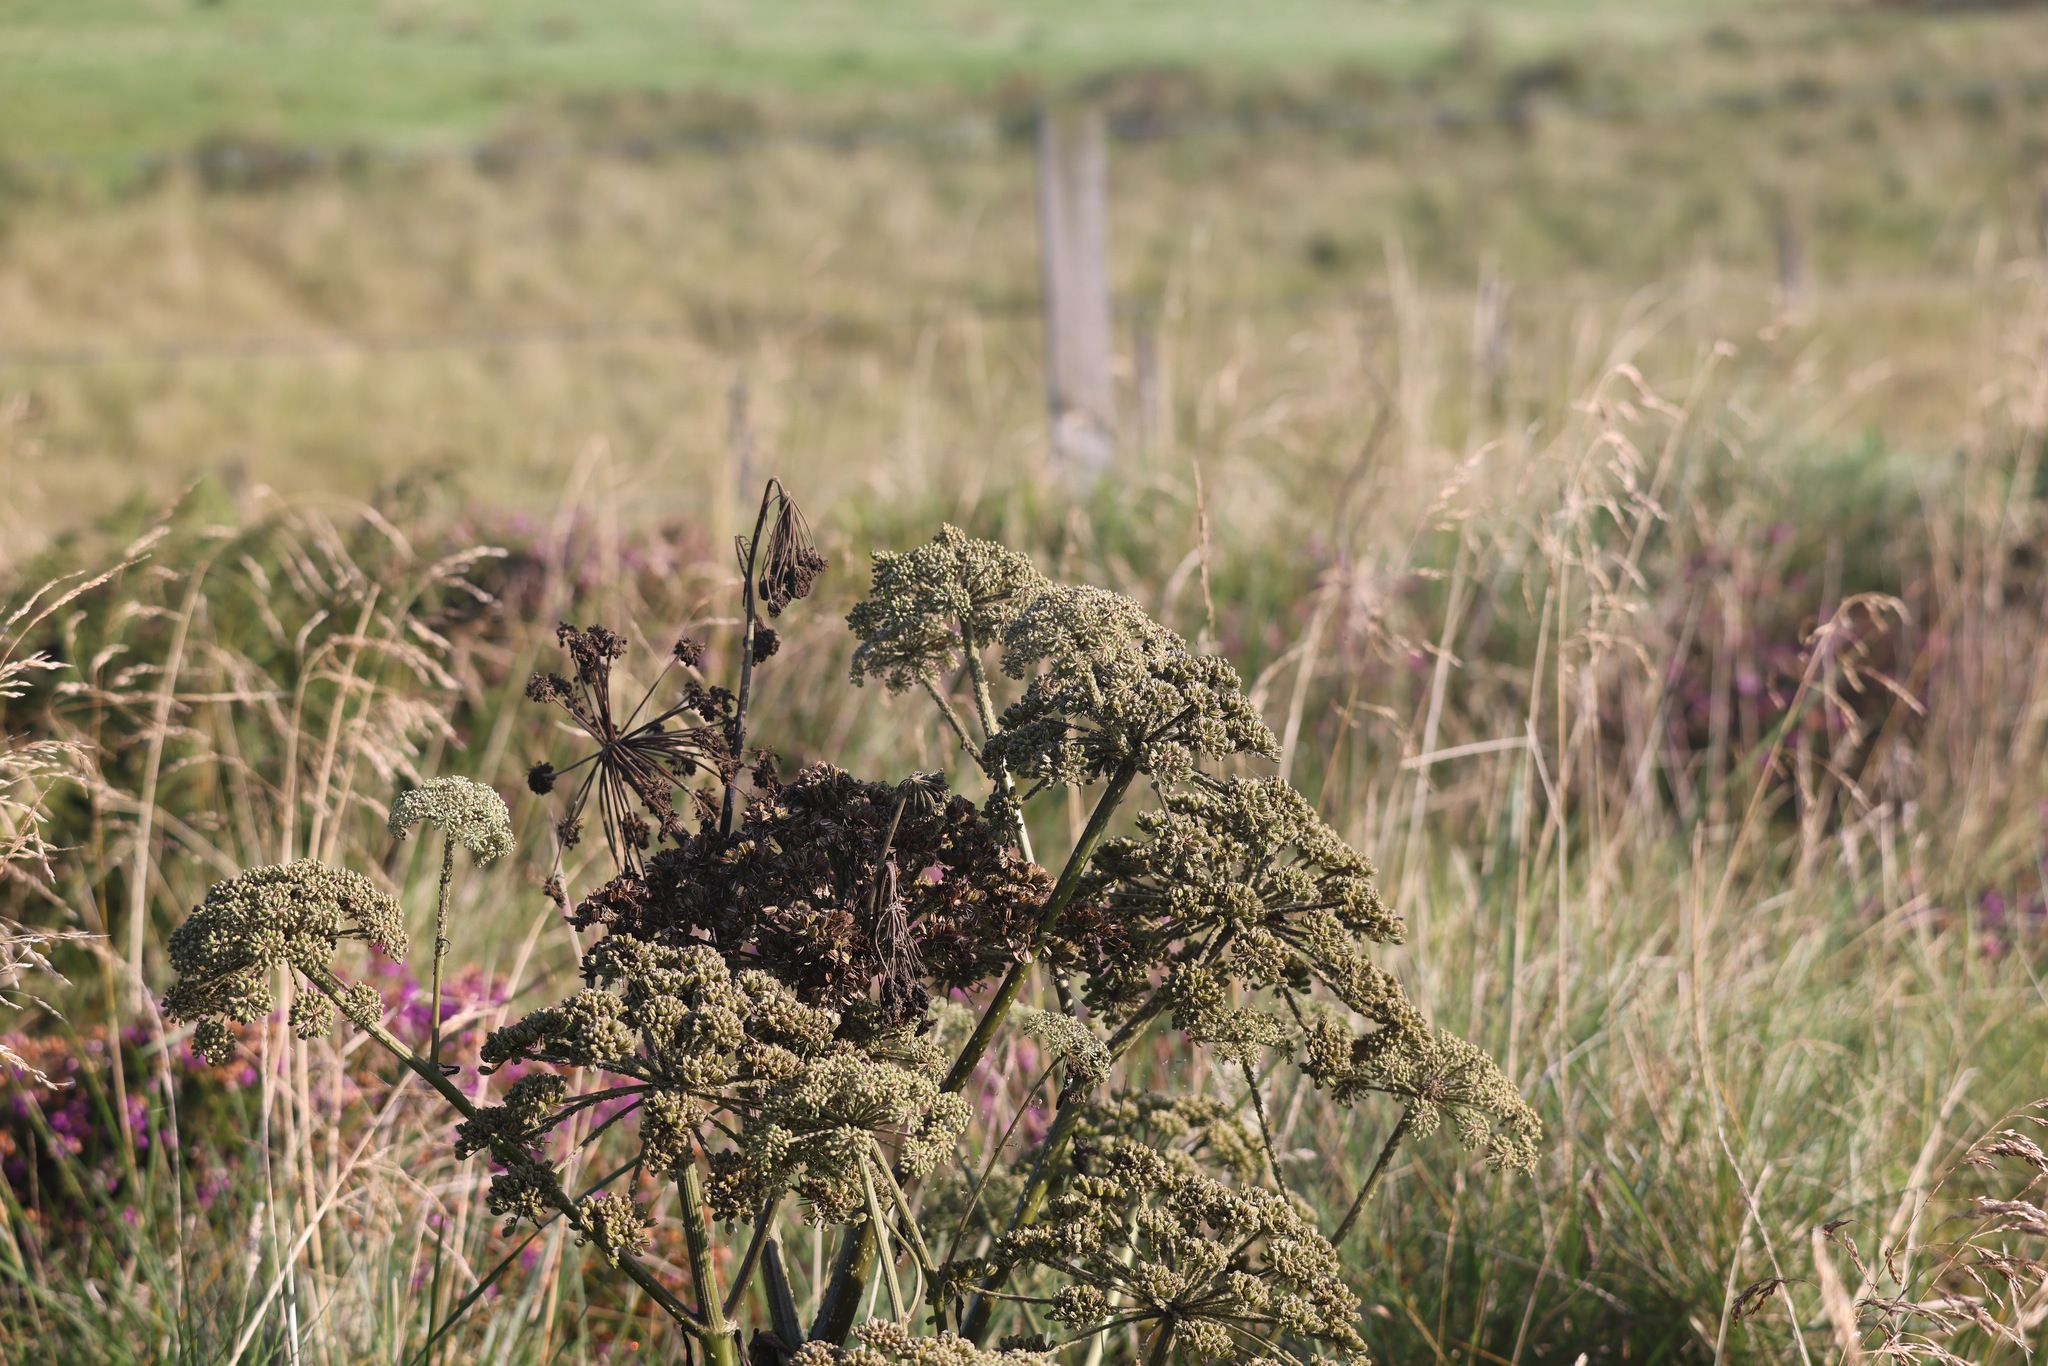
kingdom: Plantae
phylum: Tracheophyta
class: Magnoliopsida
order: Apiales
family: Apiaceae
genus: Angelica
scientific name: Angelica sylvestris
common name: Wild angelica
